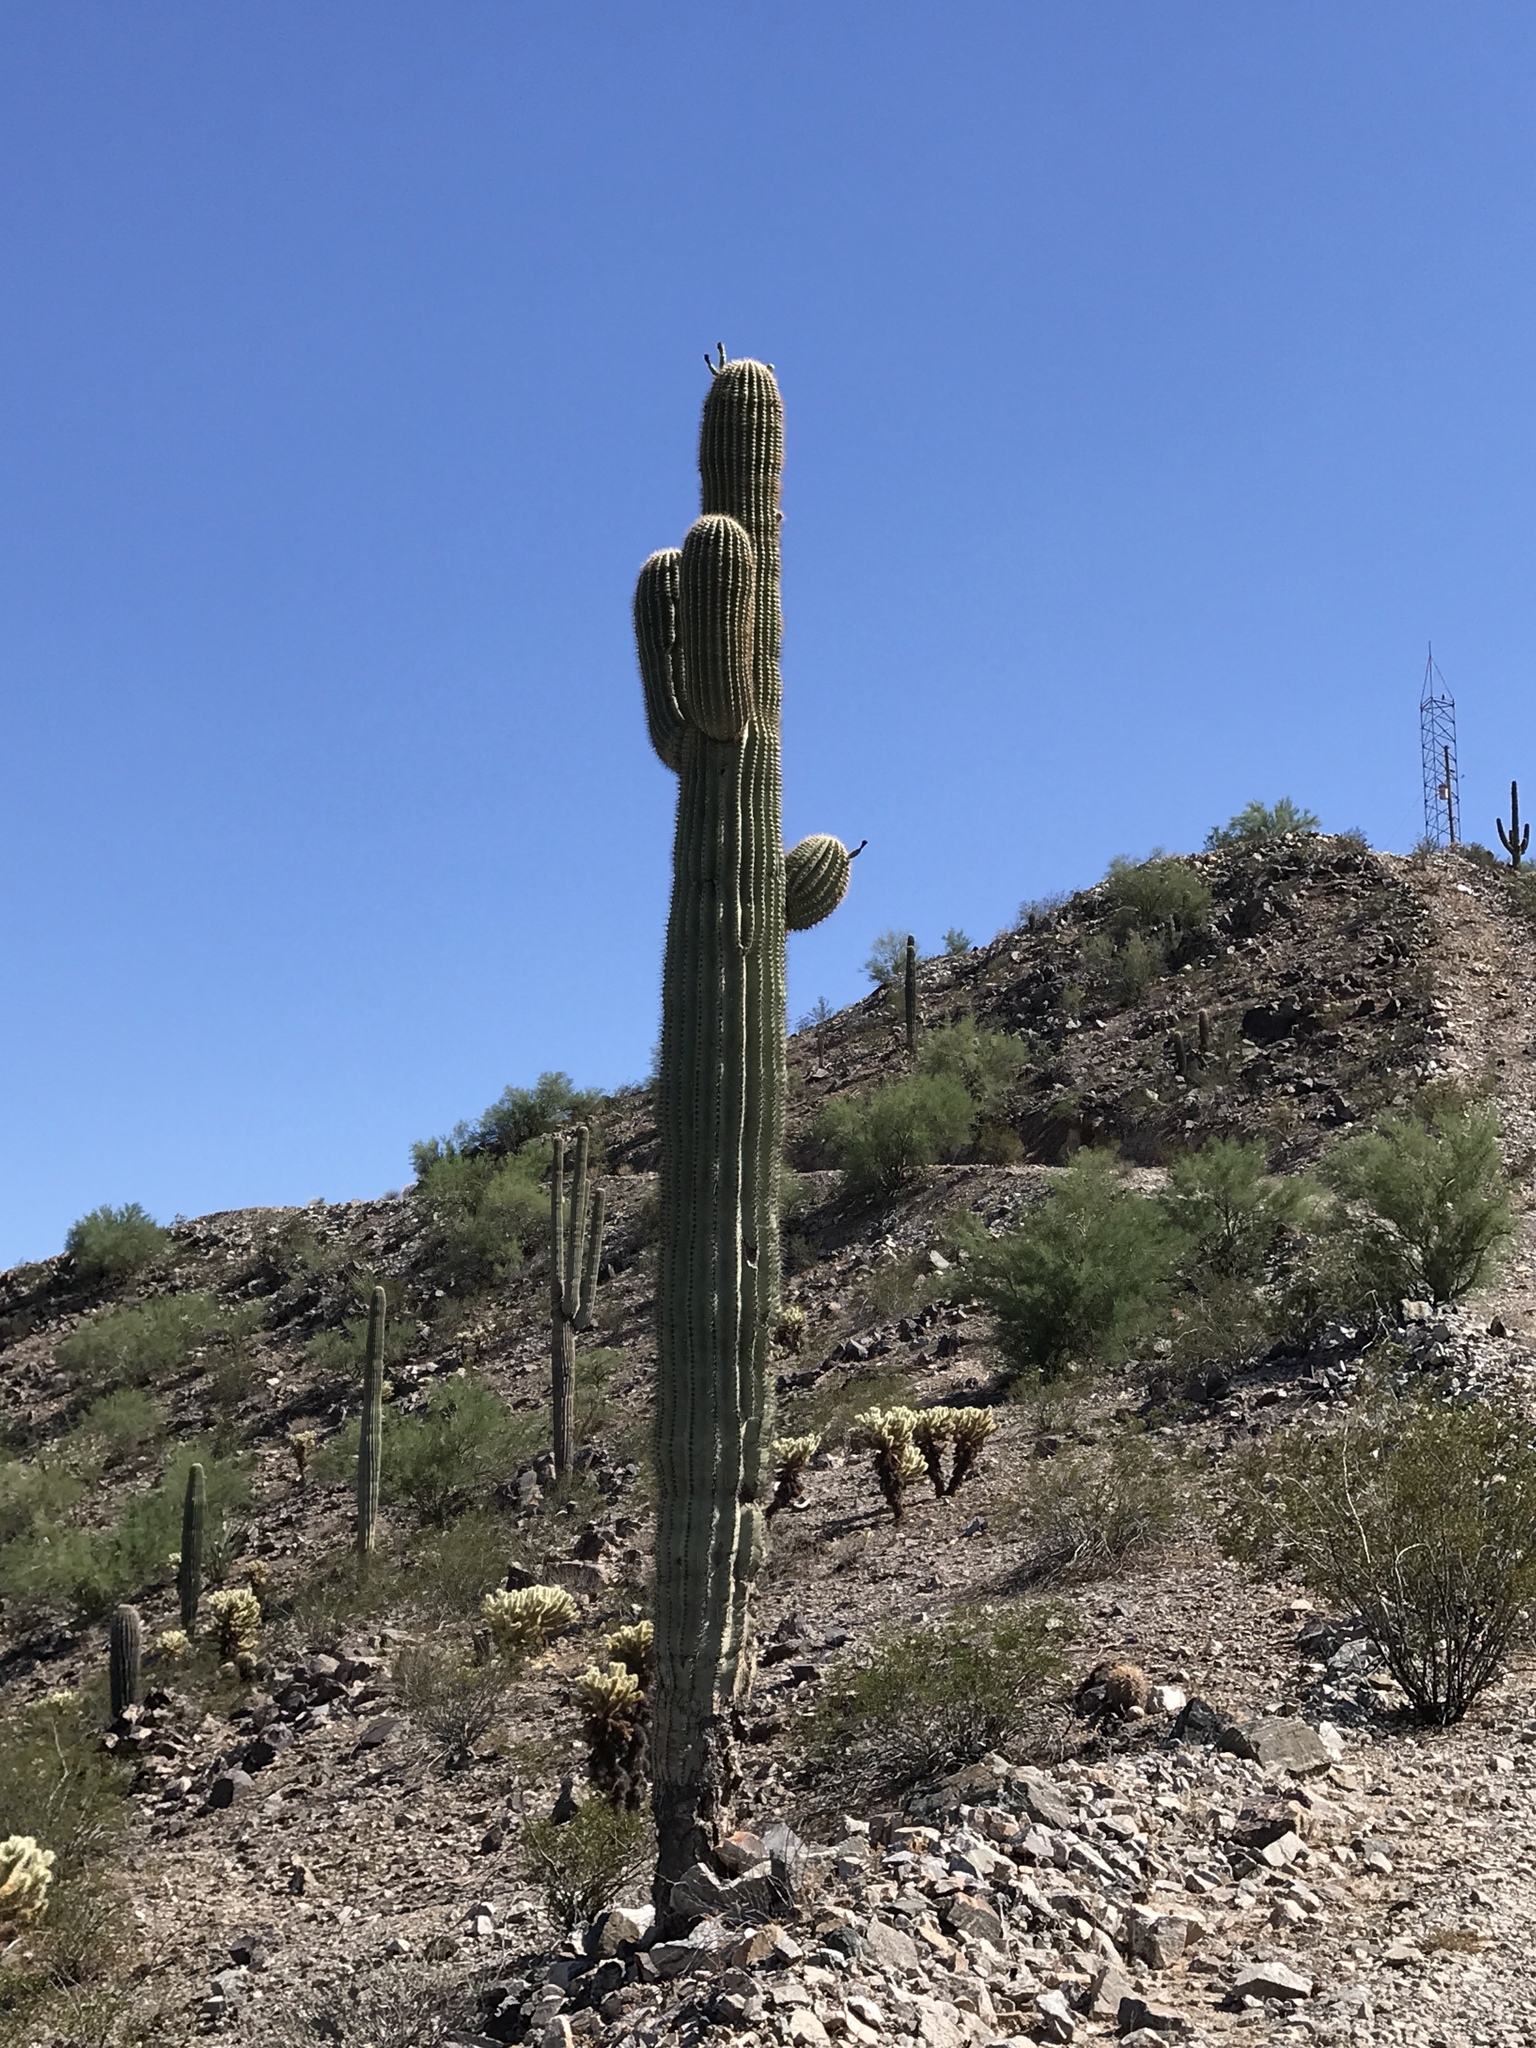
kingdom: Plantae
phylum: Tracheophyta
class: Magnoliopsida
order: Caryophyllales
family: Cactaceae
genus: Carnegiea
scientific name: Carnegiea gigantea
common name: Saguaro
